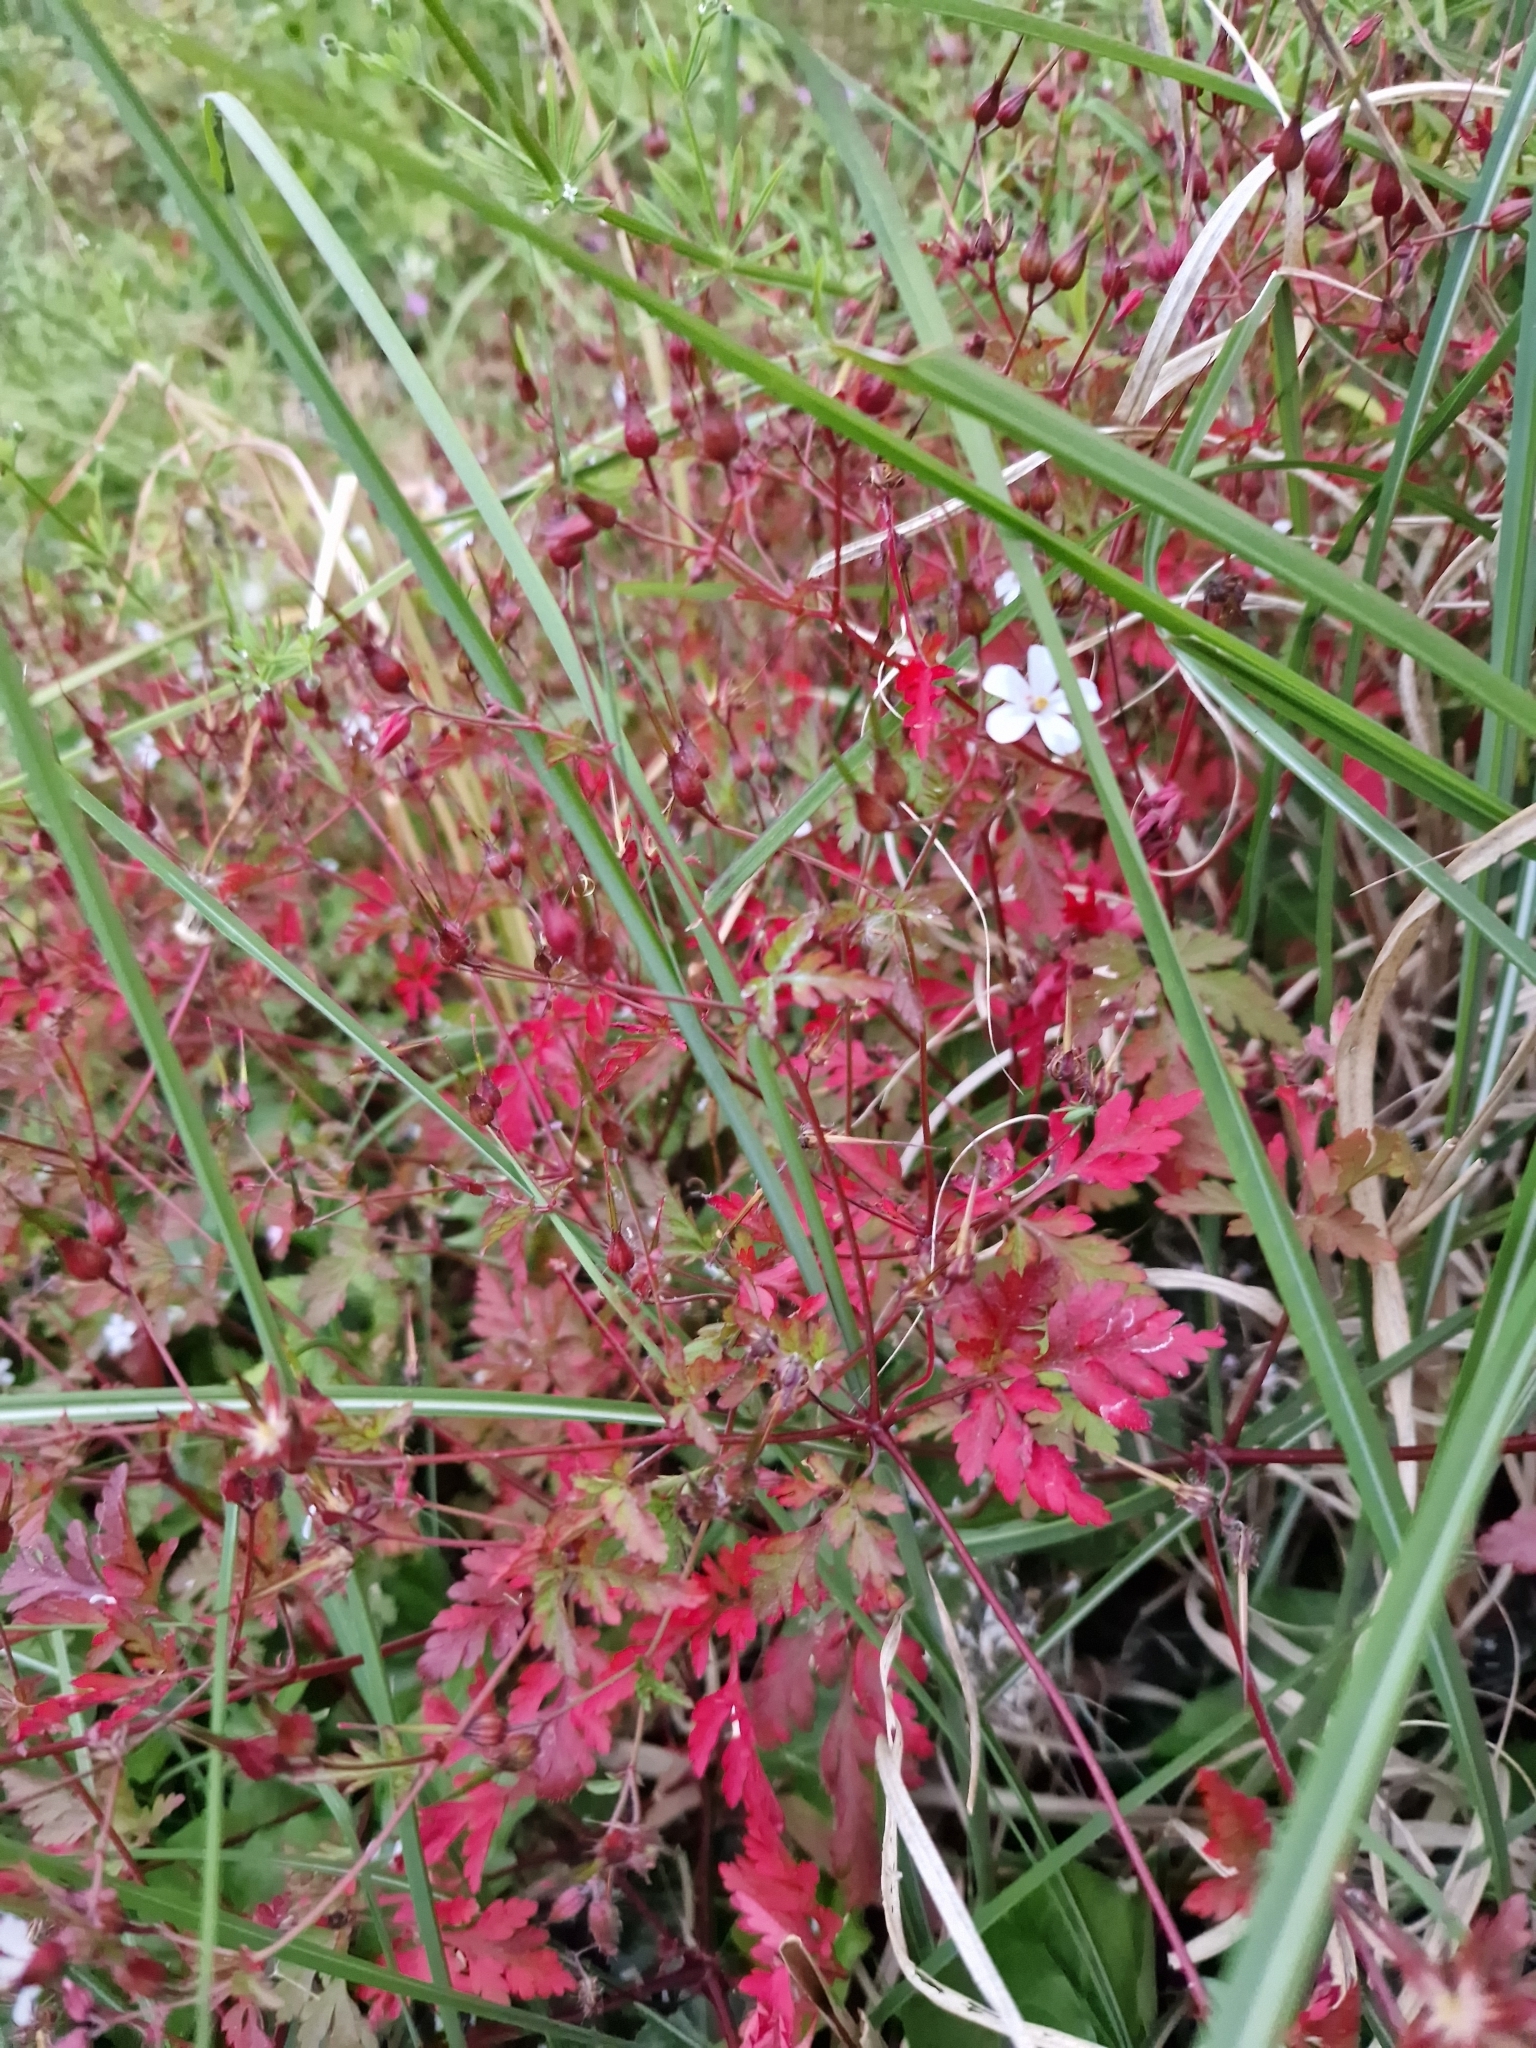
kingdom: Plantae
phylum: Tracheophyta
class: Magnoliopsida
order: Geraniales
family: Geraniaceae
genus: Geranium
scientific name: Geranium robertianum
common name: Herb-robert
